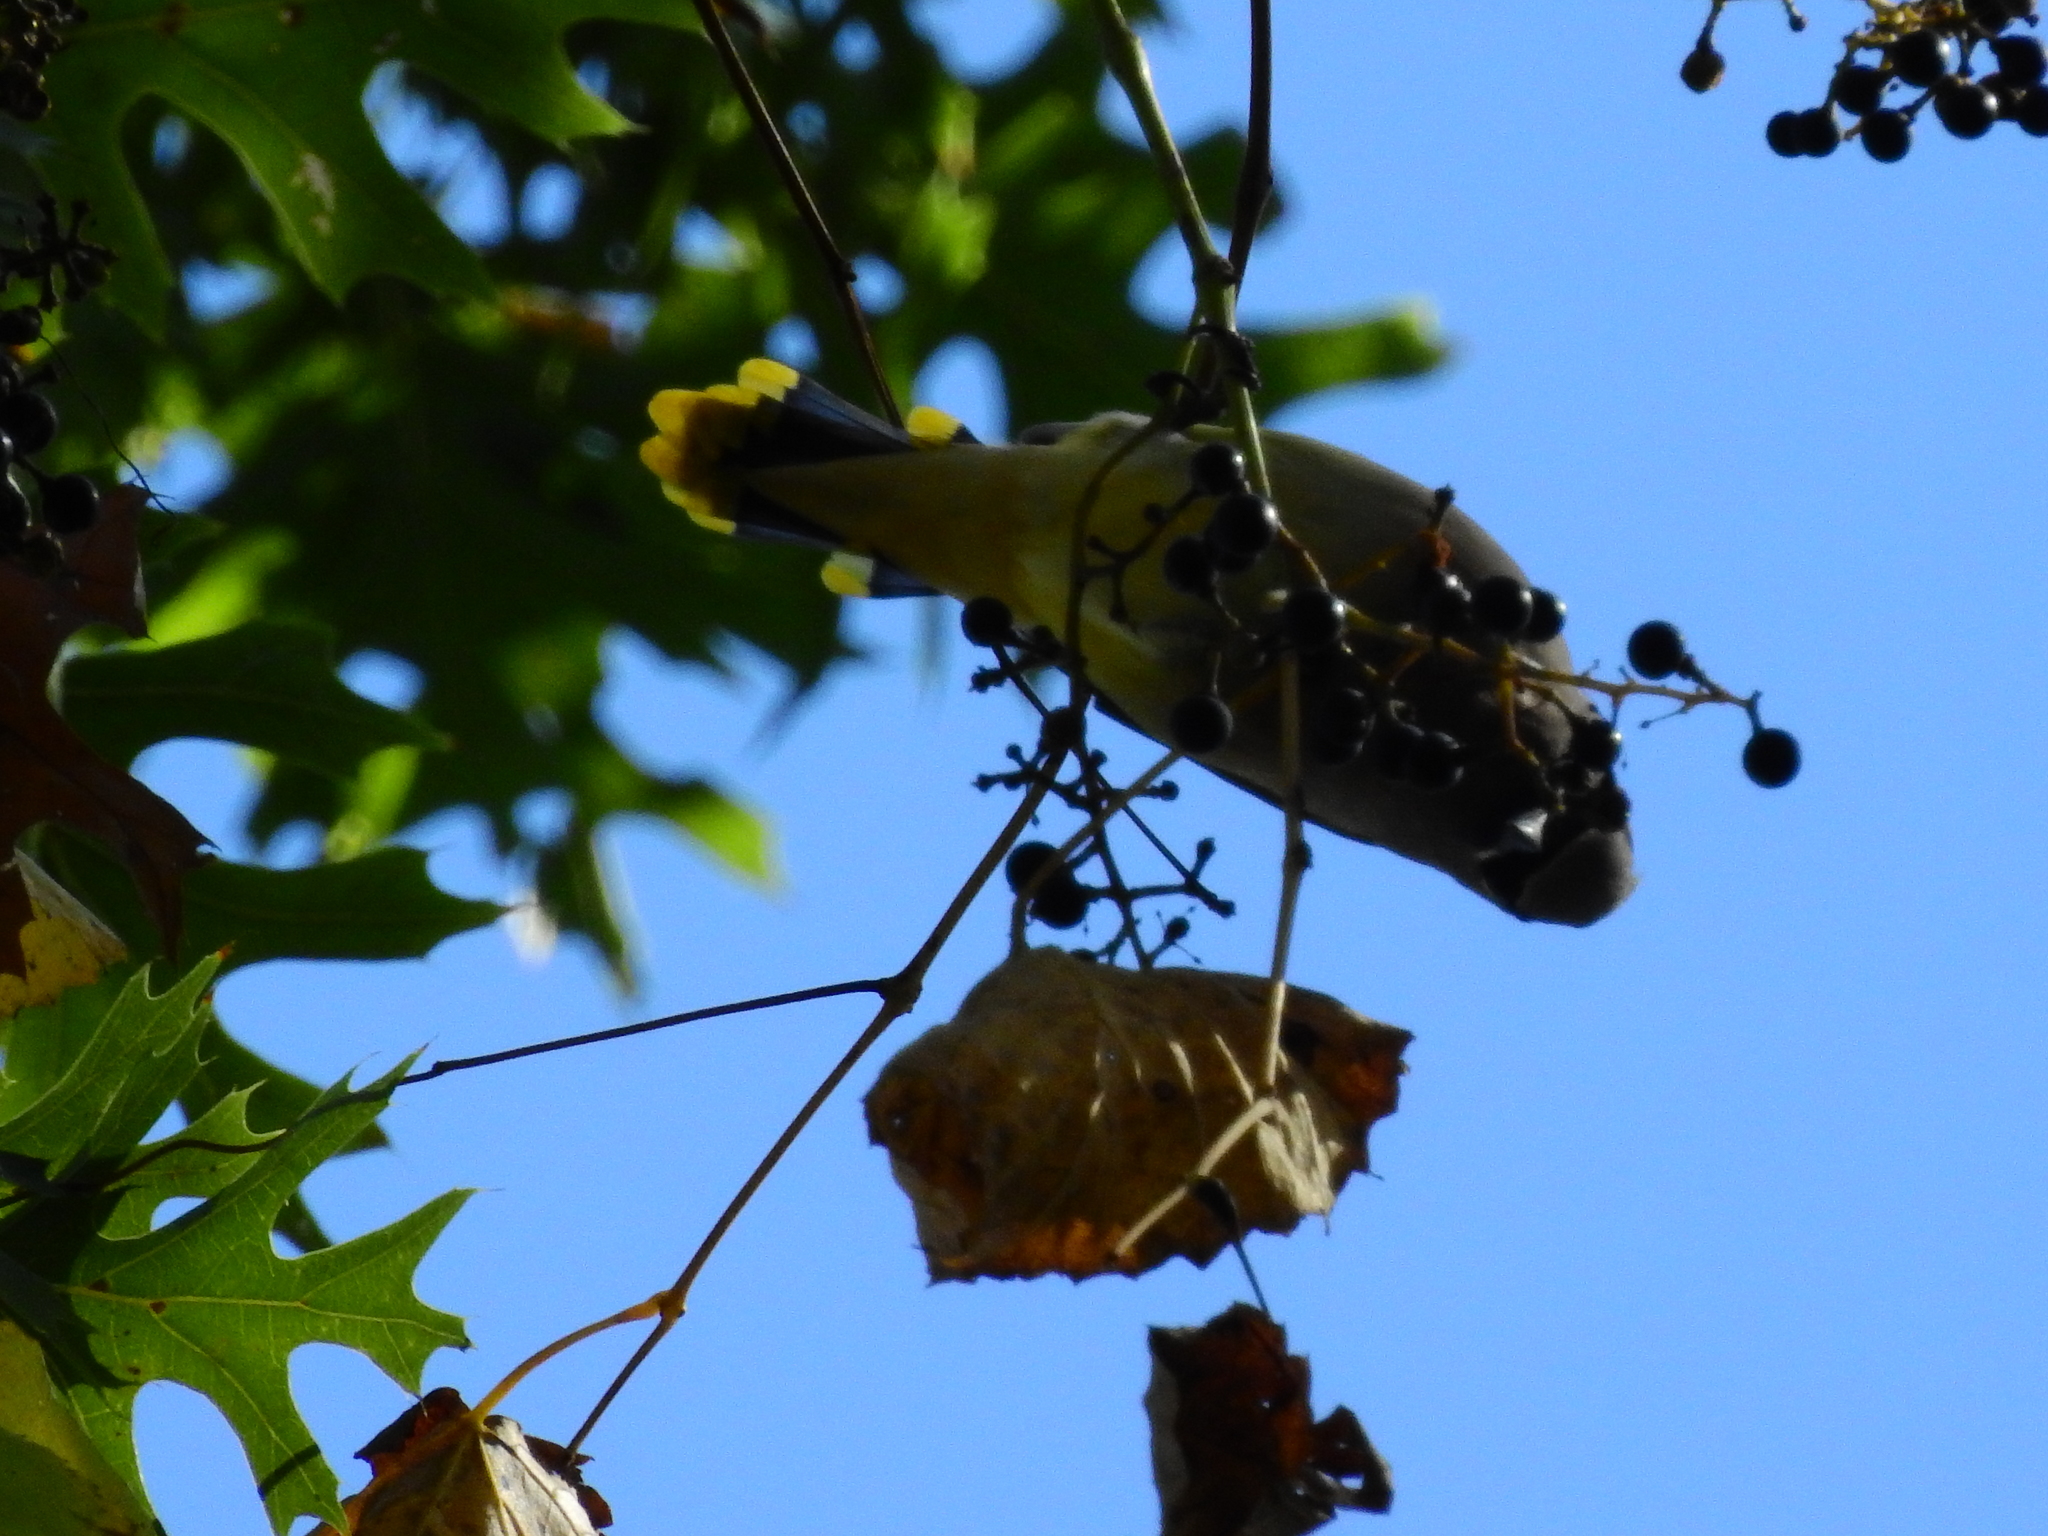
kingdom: Animalia
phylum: Chordata
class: Aves
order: Passeriformes
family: Bombycillidae
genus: Bombycilla
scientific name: Bombycilla cedrorum
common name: Cedar waxwing
